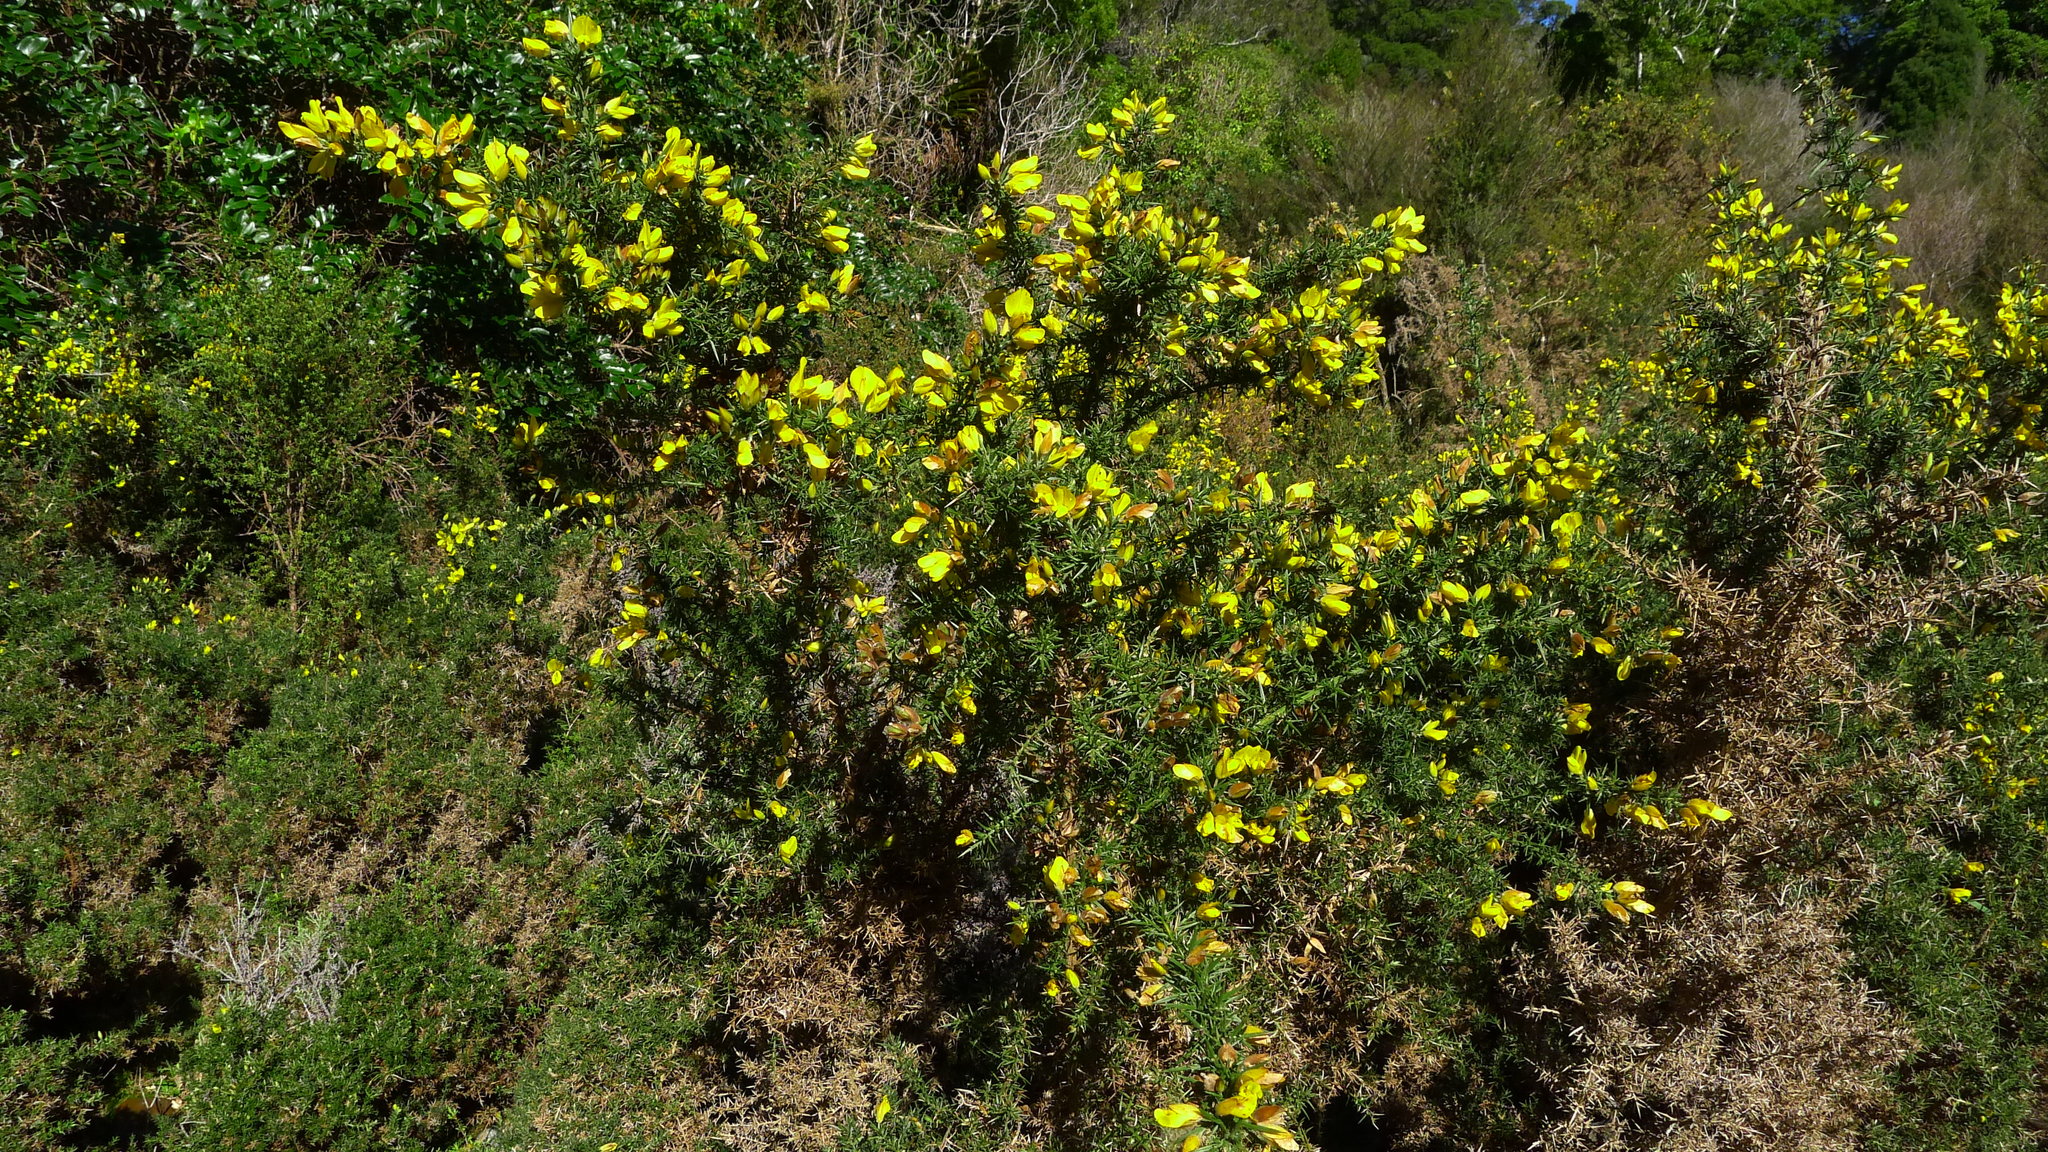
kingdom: Plantae
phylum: Tracheophyta
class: Magnoliopsida
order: Fabales
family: Fabaceae
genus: Ulex
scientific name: Ulex europaeus
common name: Common gorse
